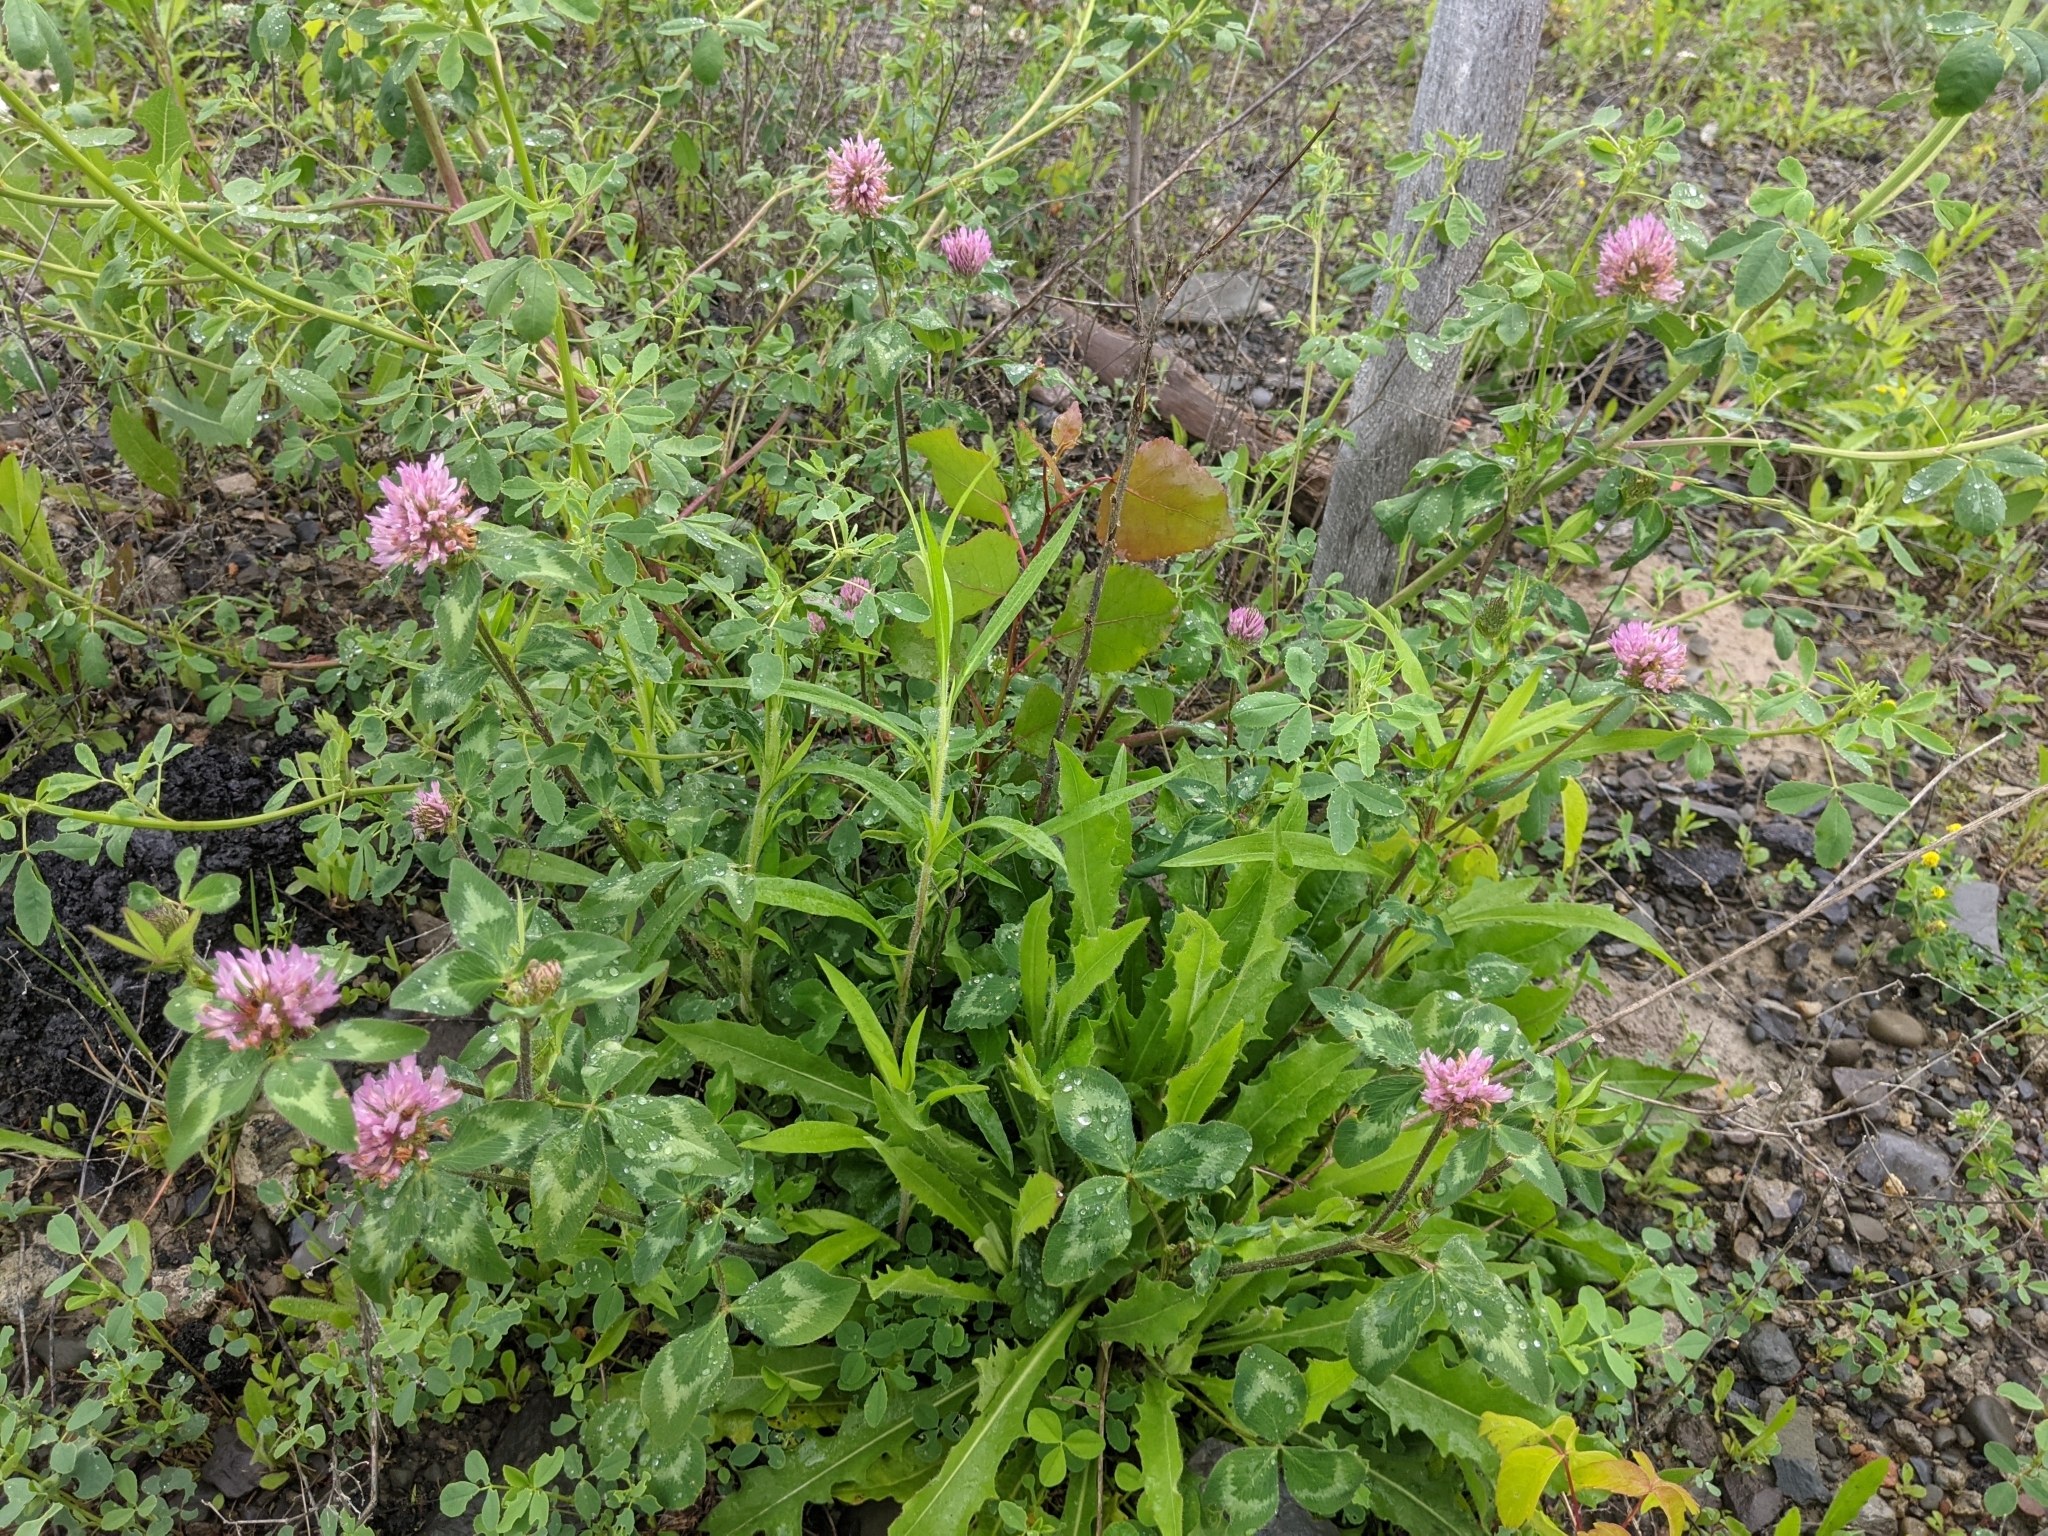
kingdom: Plantae
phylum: Tracheophyta
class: Magnoliopsida
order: Fabales
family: Fabaceae
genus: Trifolium
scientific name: Trifolium pratense
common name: Red clover
